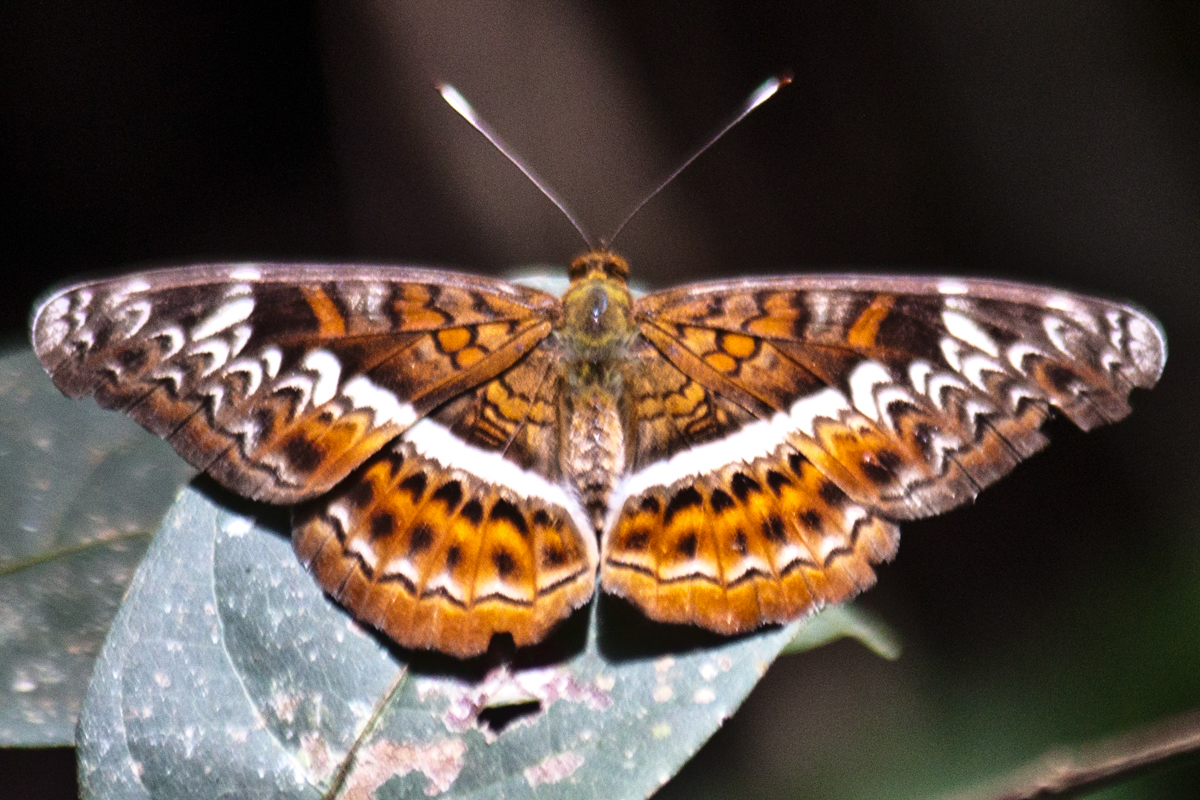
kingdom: Animalia
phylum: Arthropoda
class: Insecta
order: Lepidoptera
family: Nymphalidae
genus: Lebadea
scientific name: Lebadea martha
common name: Knight
